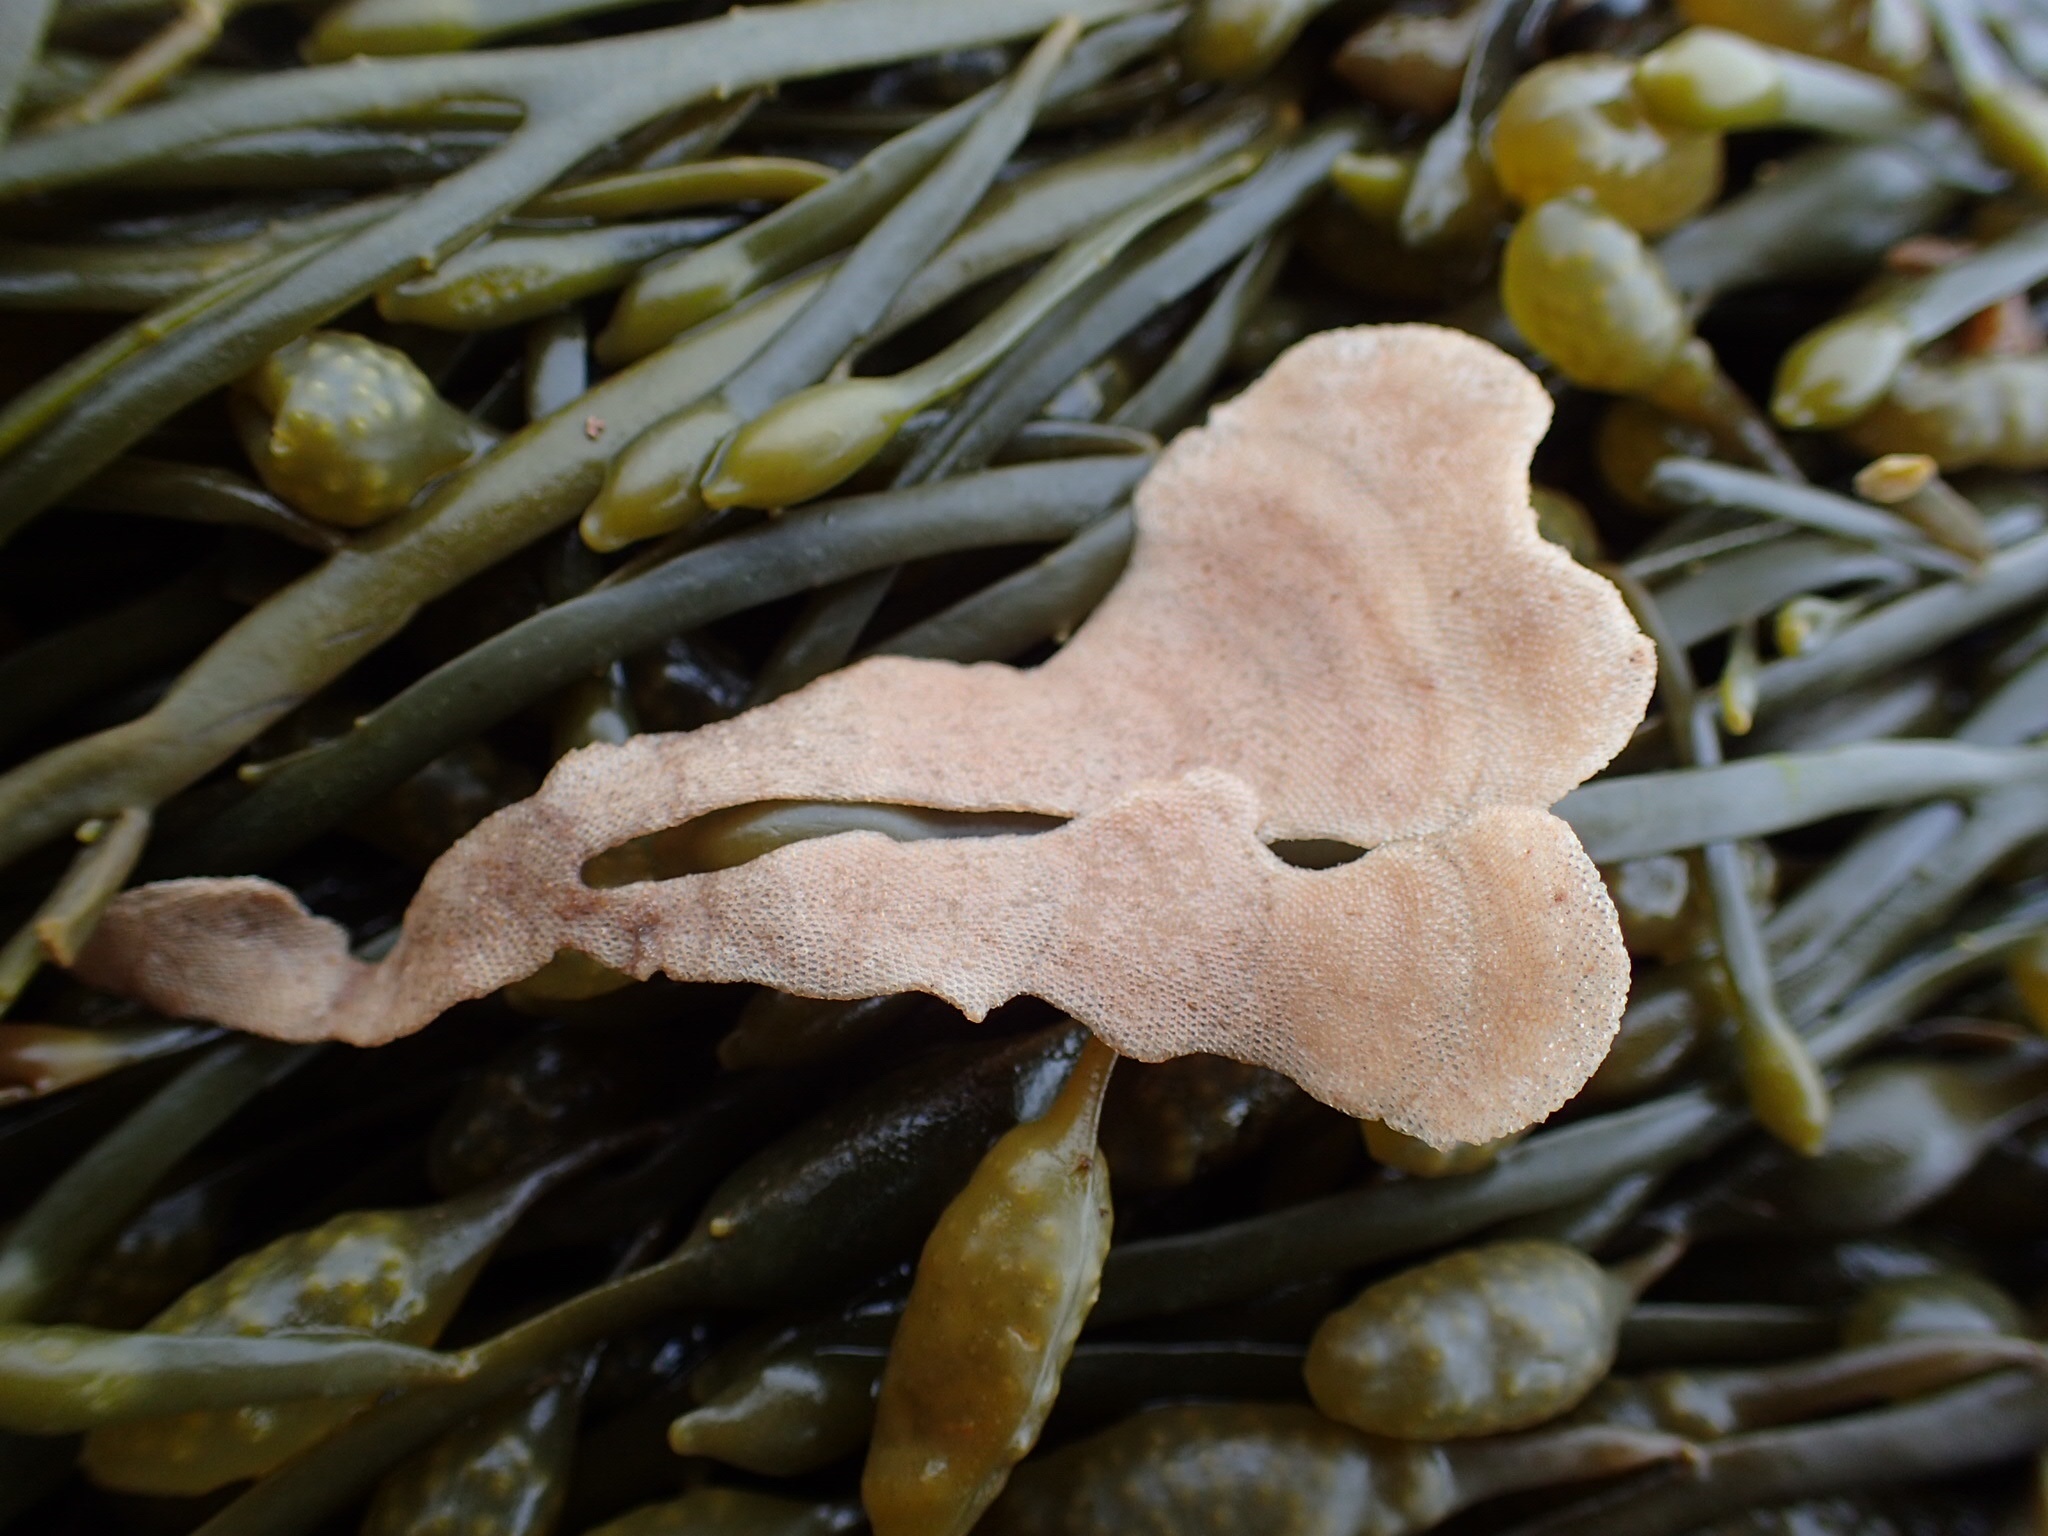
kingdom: Animalia
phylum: Bryozoa
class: Gymnolaemata
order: Cheilostomatida
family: Flustridae
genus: Flustra
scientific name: Flustra foliacea
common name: Hornwrack
